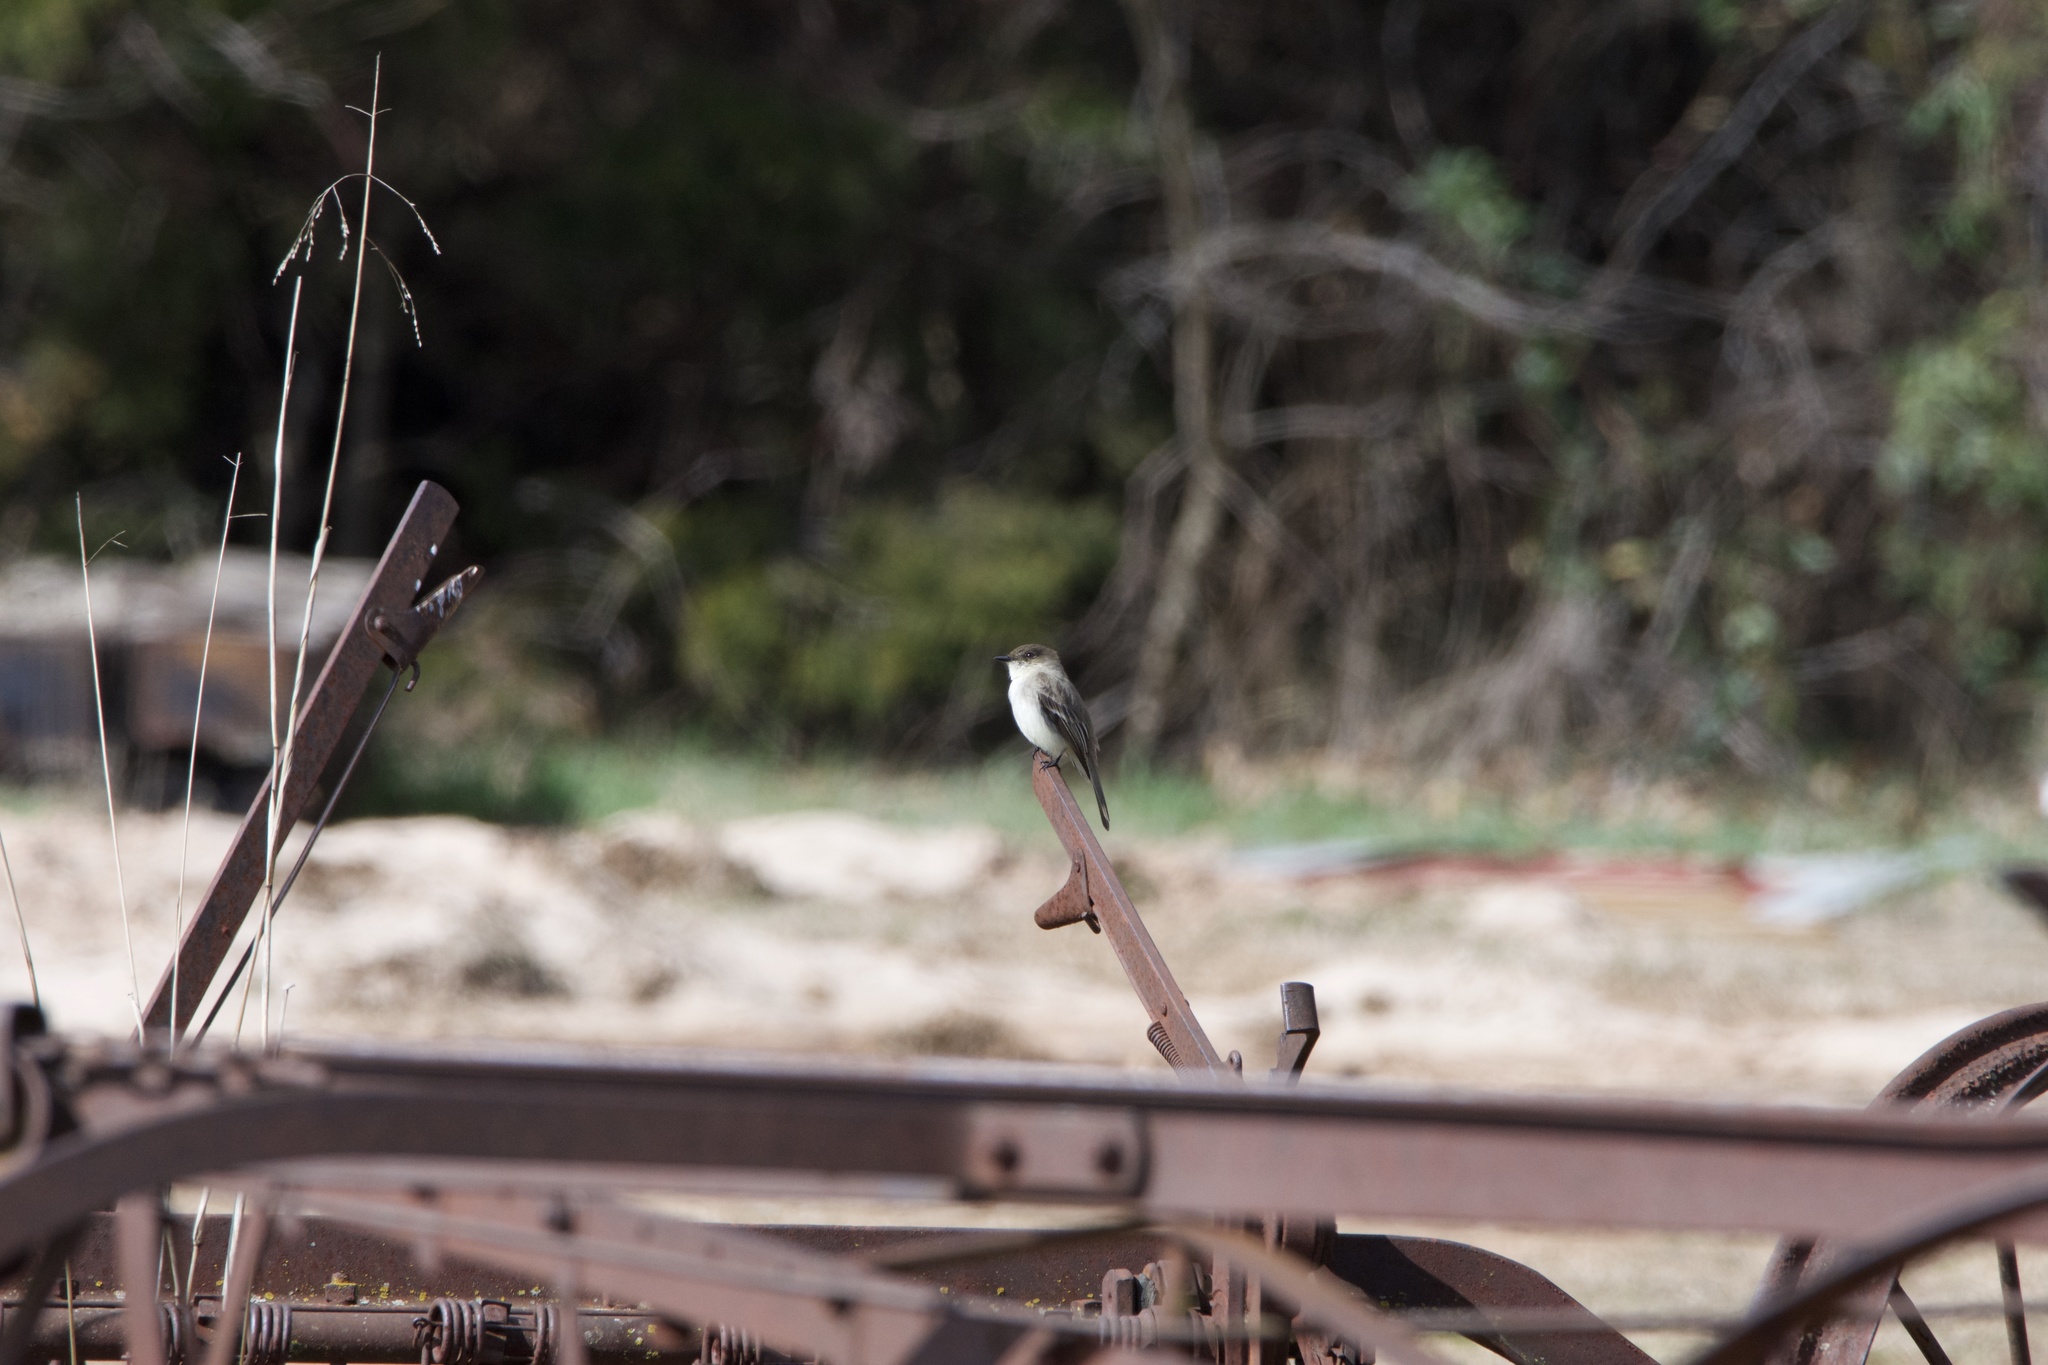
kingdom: Animalia
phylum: Chordata
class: Aves
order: Passeriformes
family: Tyrannidae
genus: Sayornis
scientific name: Sayornis phoebe
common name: Eastern phoebe
